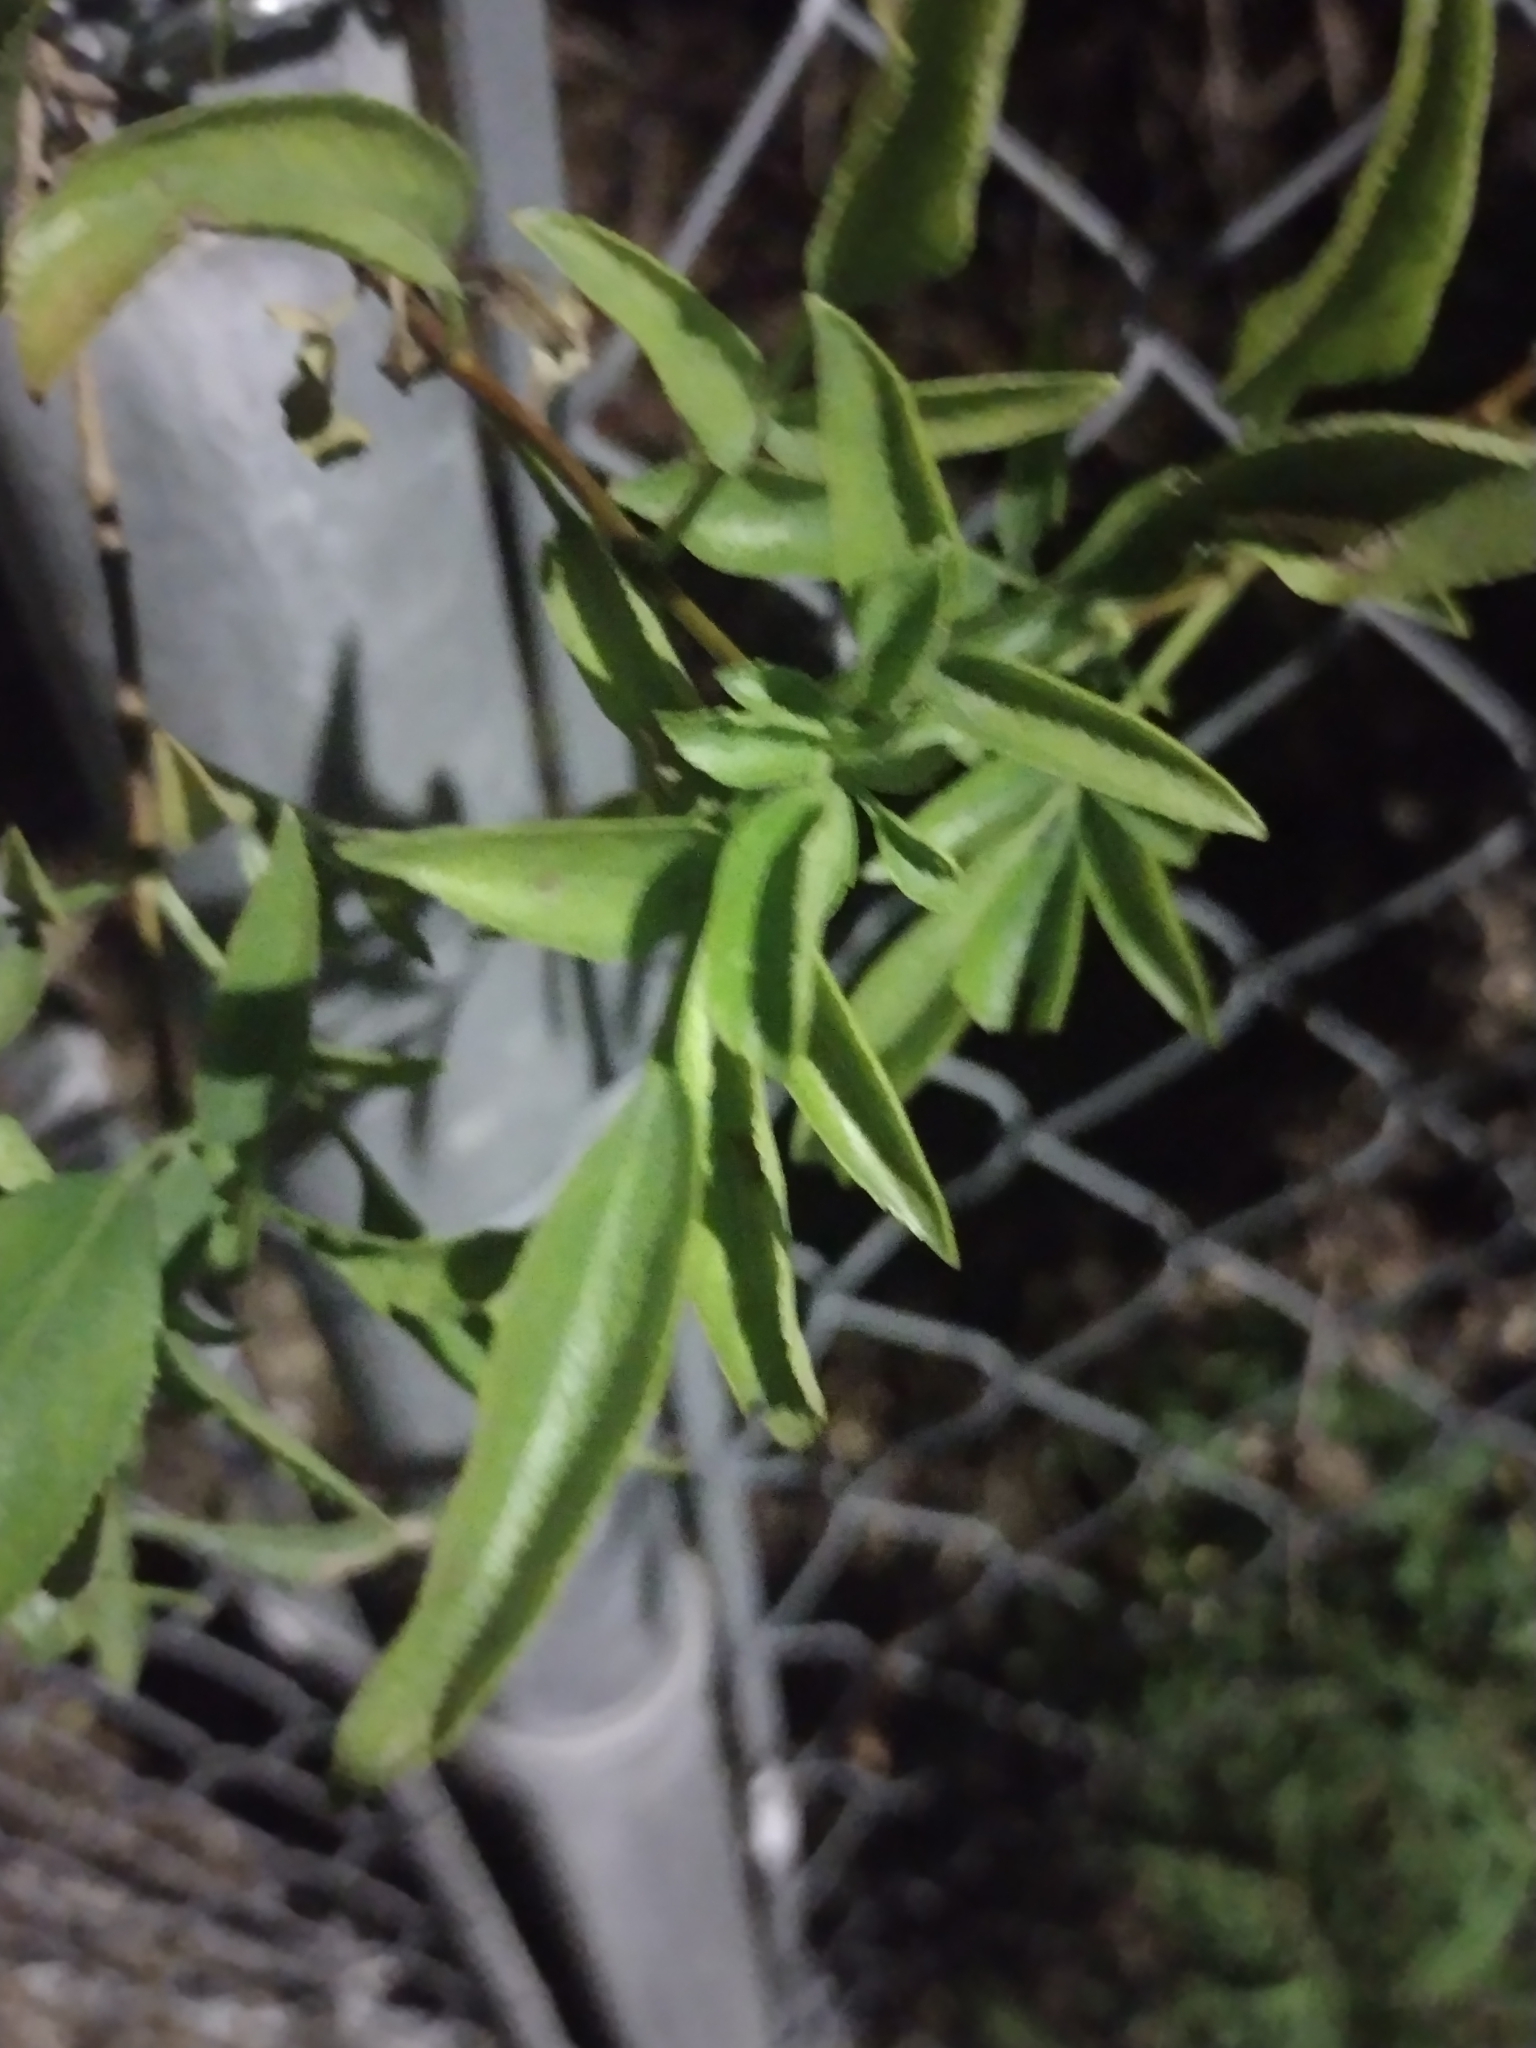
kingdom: Plantae
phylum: Tracheophyta
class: Magnoliopsida
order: Dipsacales
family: Viburnaceae
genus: Sambucus
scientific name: Sambucus cerulea
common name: Blue elder
